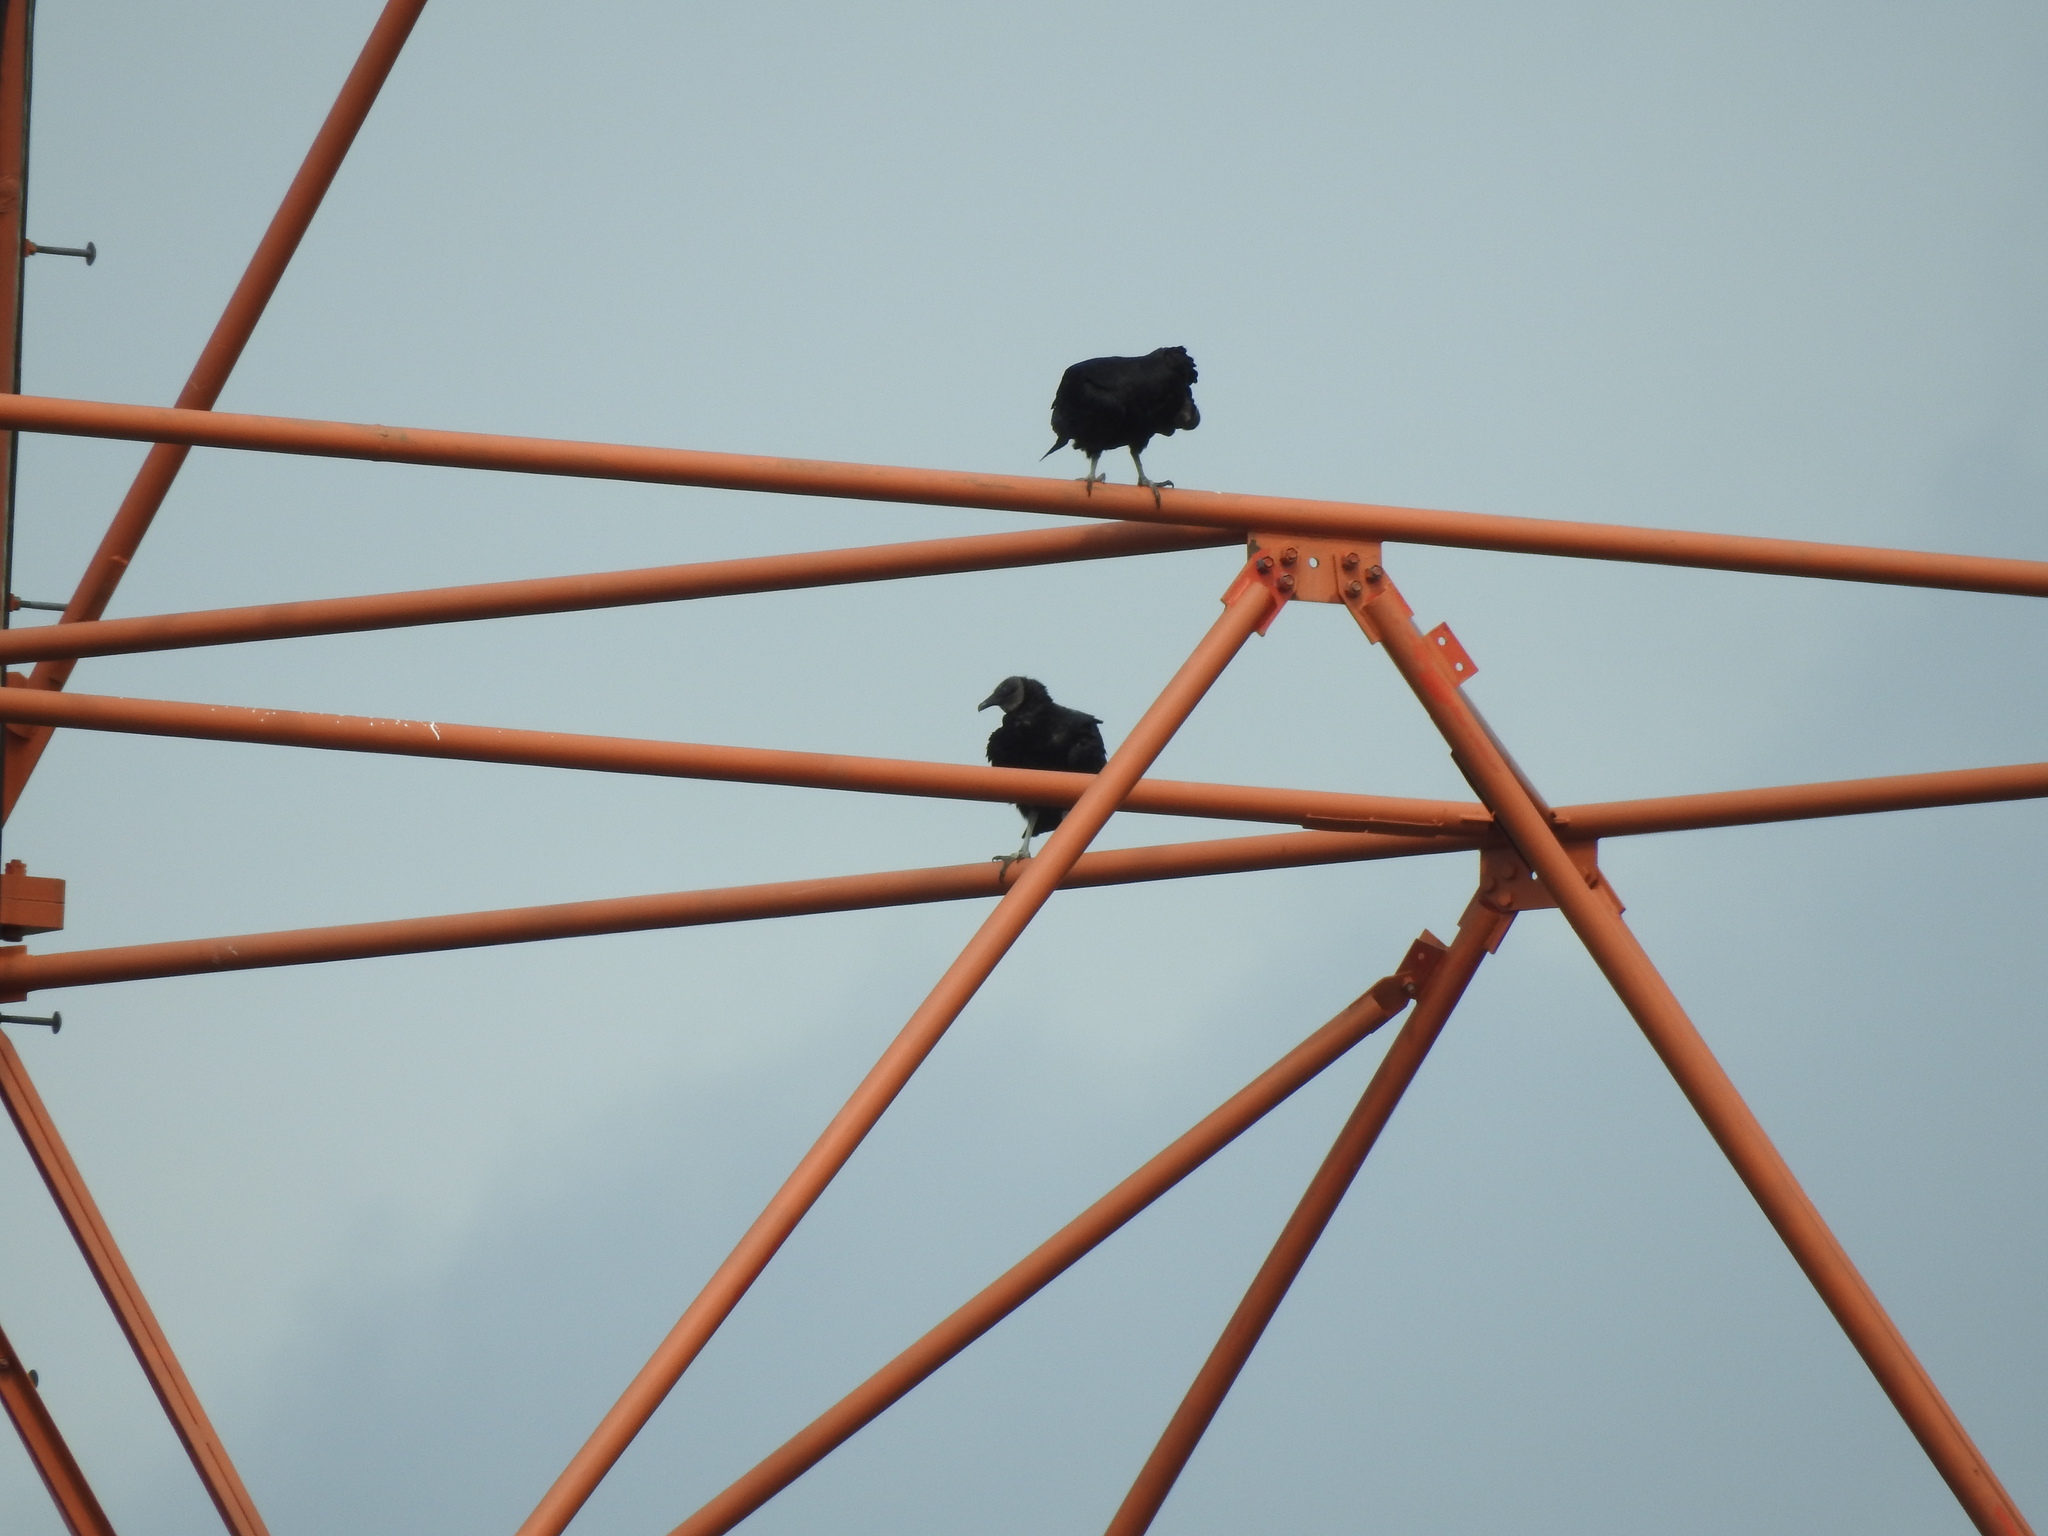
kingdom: Animalia
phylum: Chordata
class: Aves
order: Accipitriformes
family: Cathartidae
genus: Coragyps
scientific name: Coragyps atratus
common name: Black vulture
